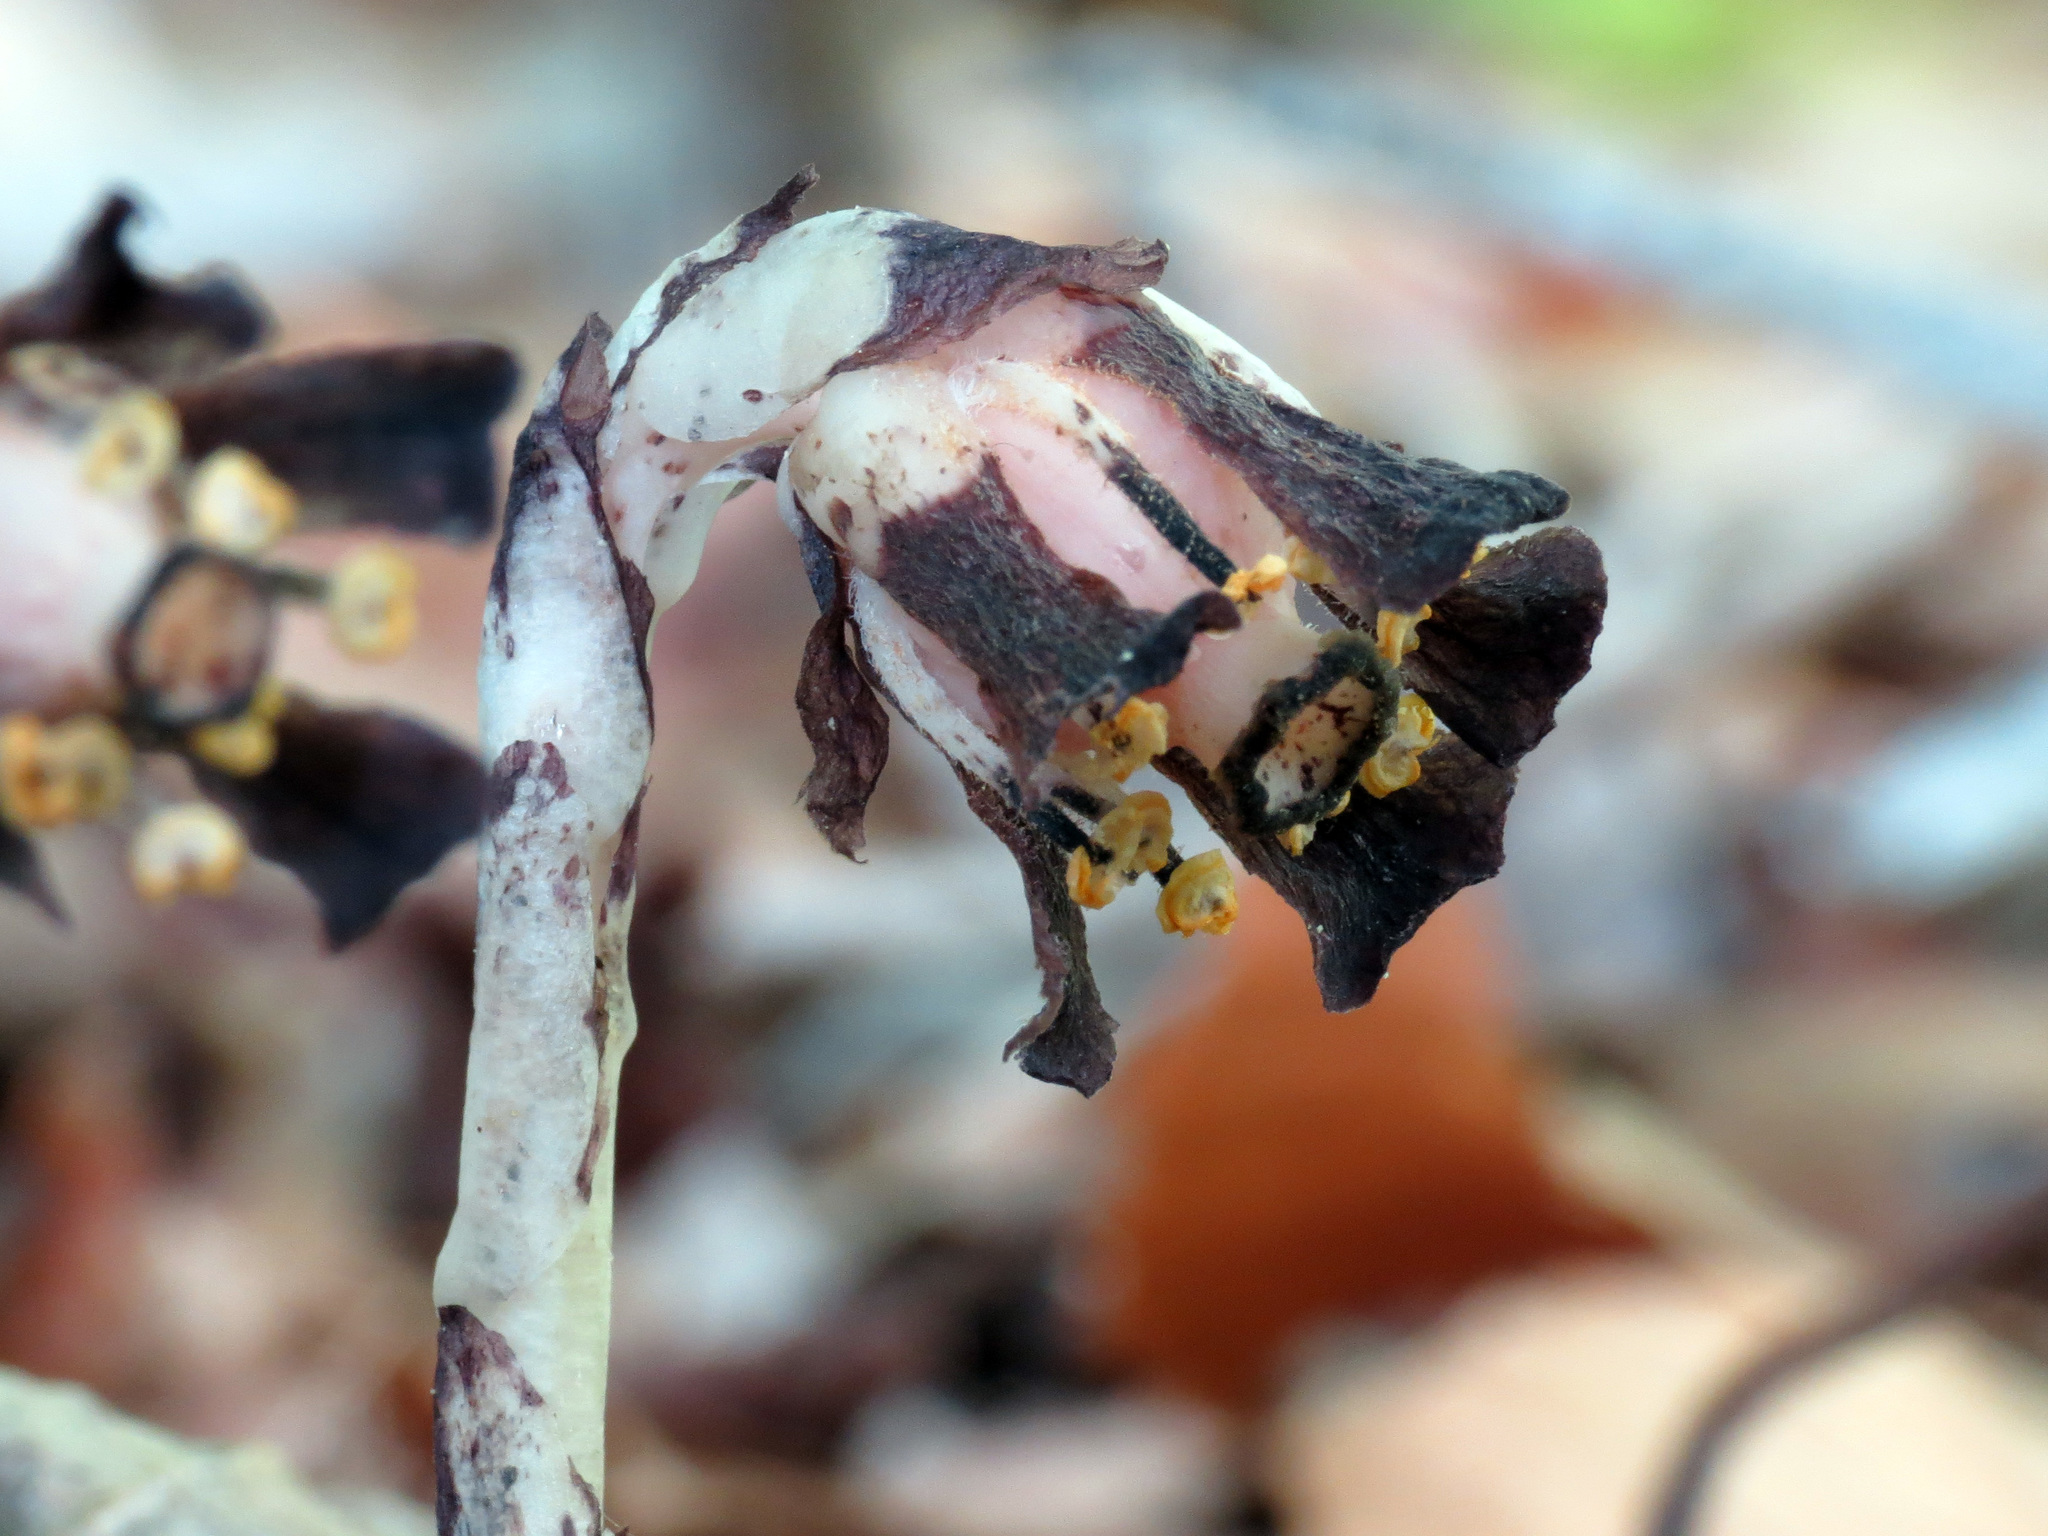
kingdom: Plantae
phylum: Tracheophyta
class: Magnoliopsida
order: Ericales
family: Ericaceae
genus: Monotropa
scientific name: Monotropa uniflora
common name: Convulsion root
